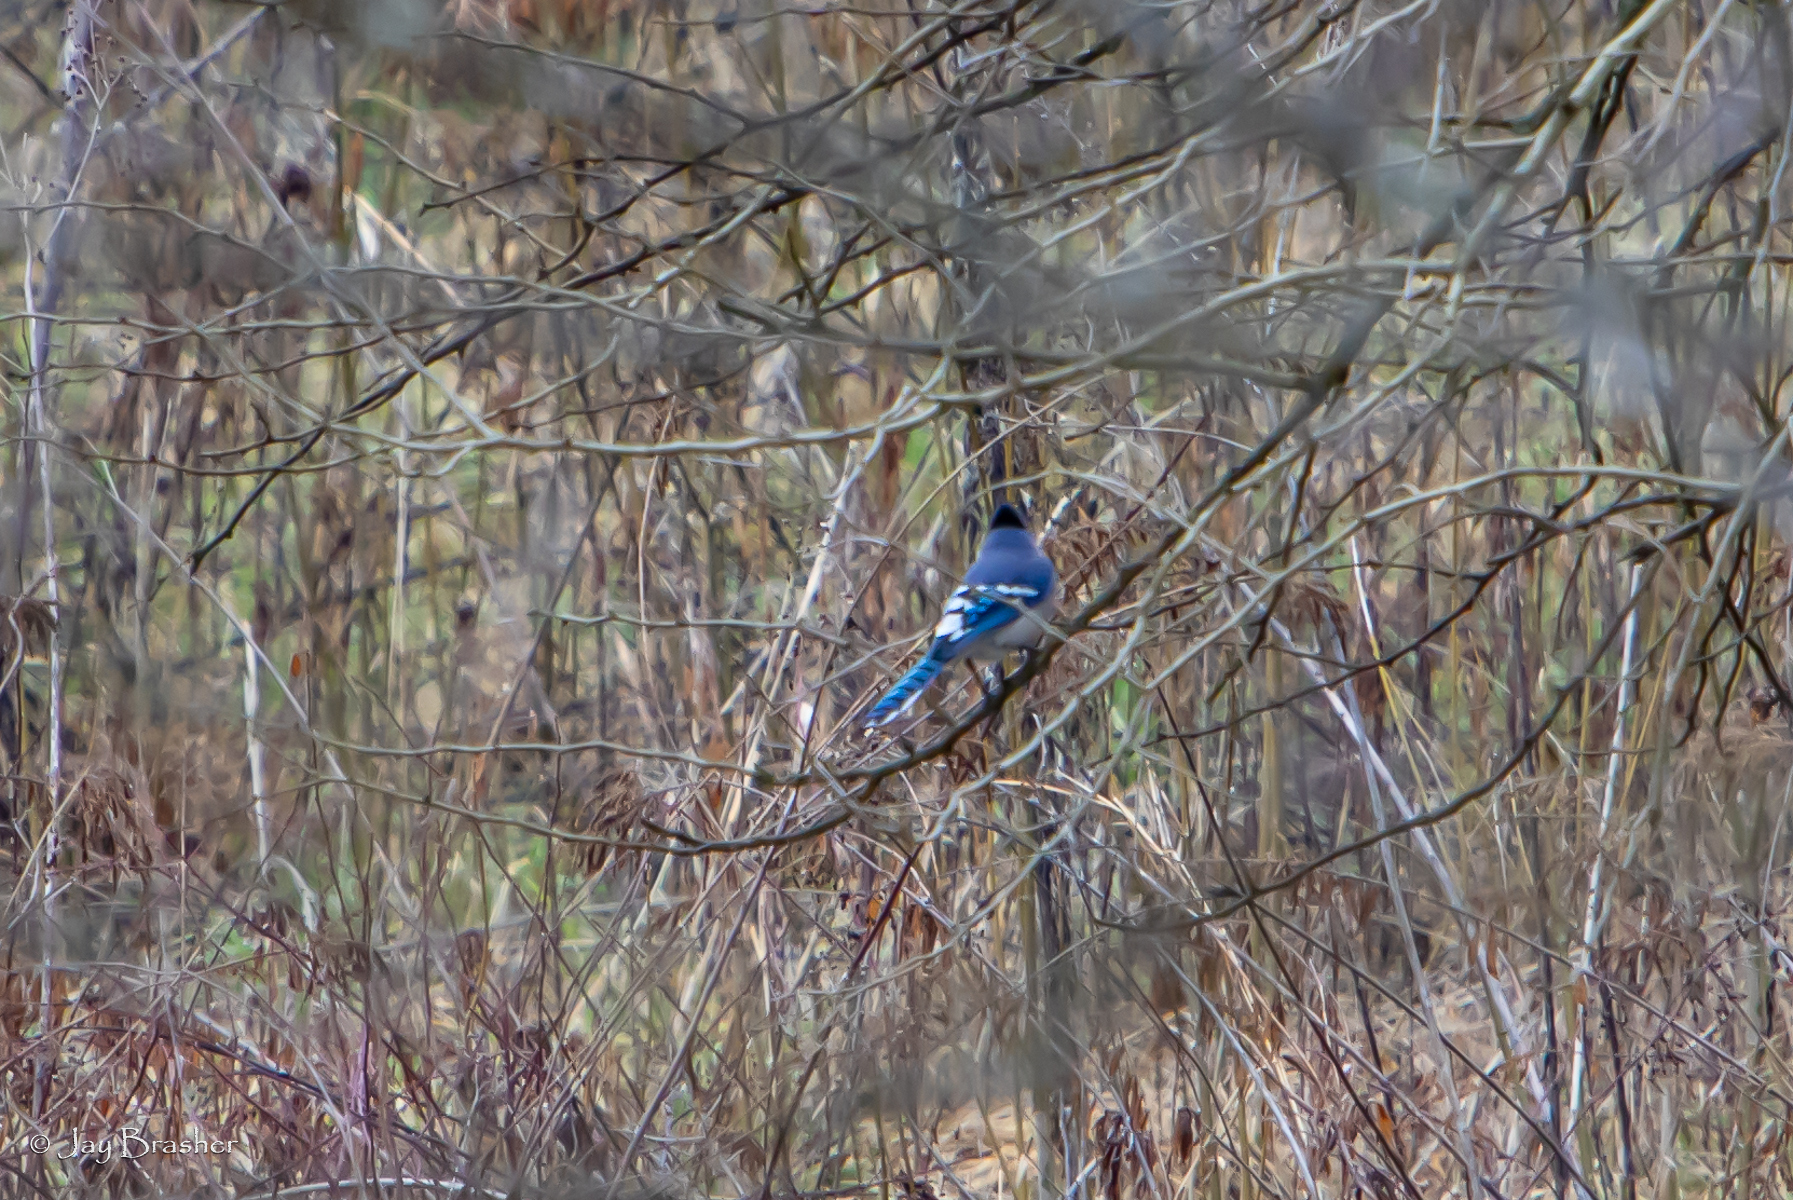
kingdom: Animalia
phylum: Chordata
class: Aves
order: Passeriformes
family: Corvidae
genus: Cyanocitta
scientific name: Cyanocitta cristata
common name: Blue jay
